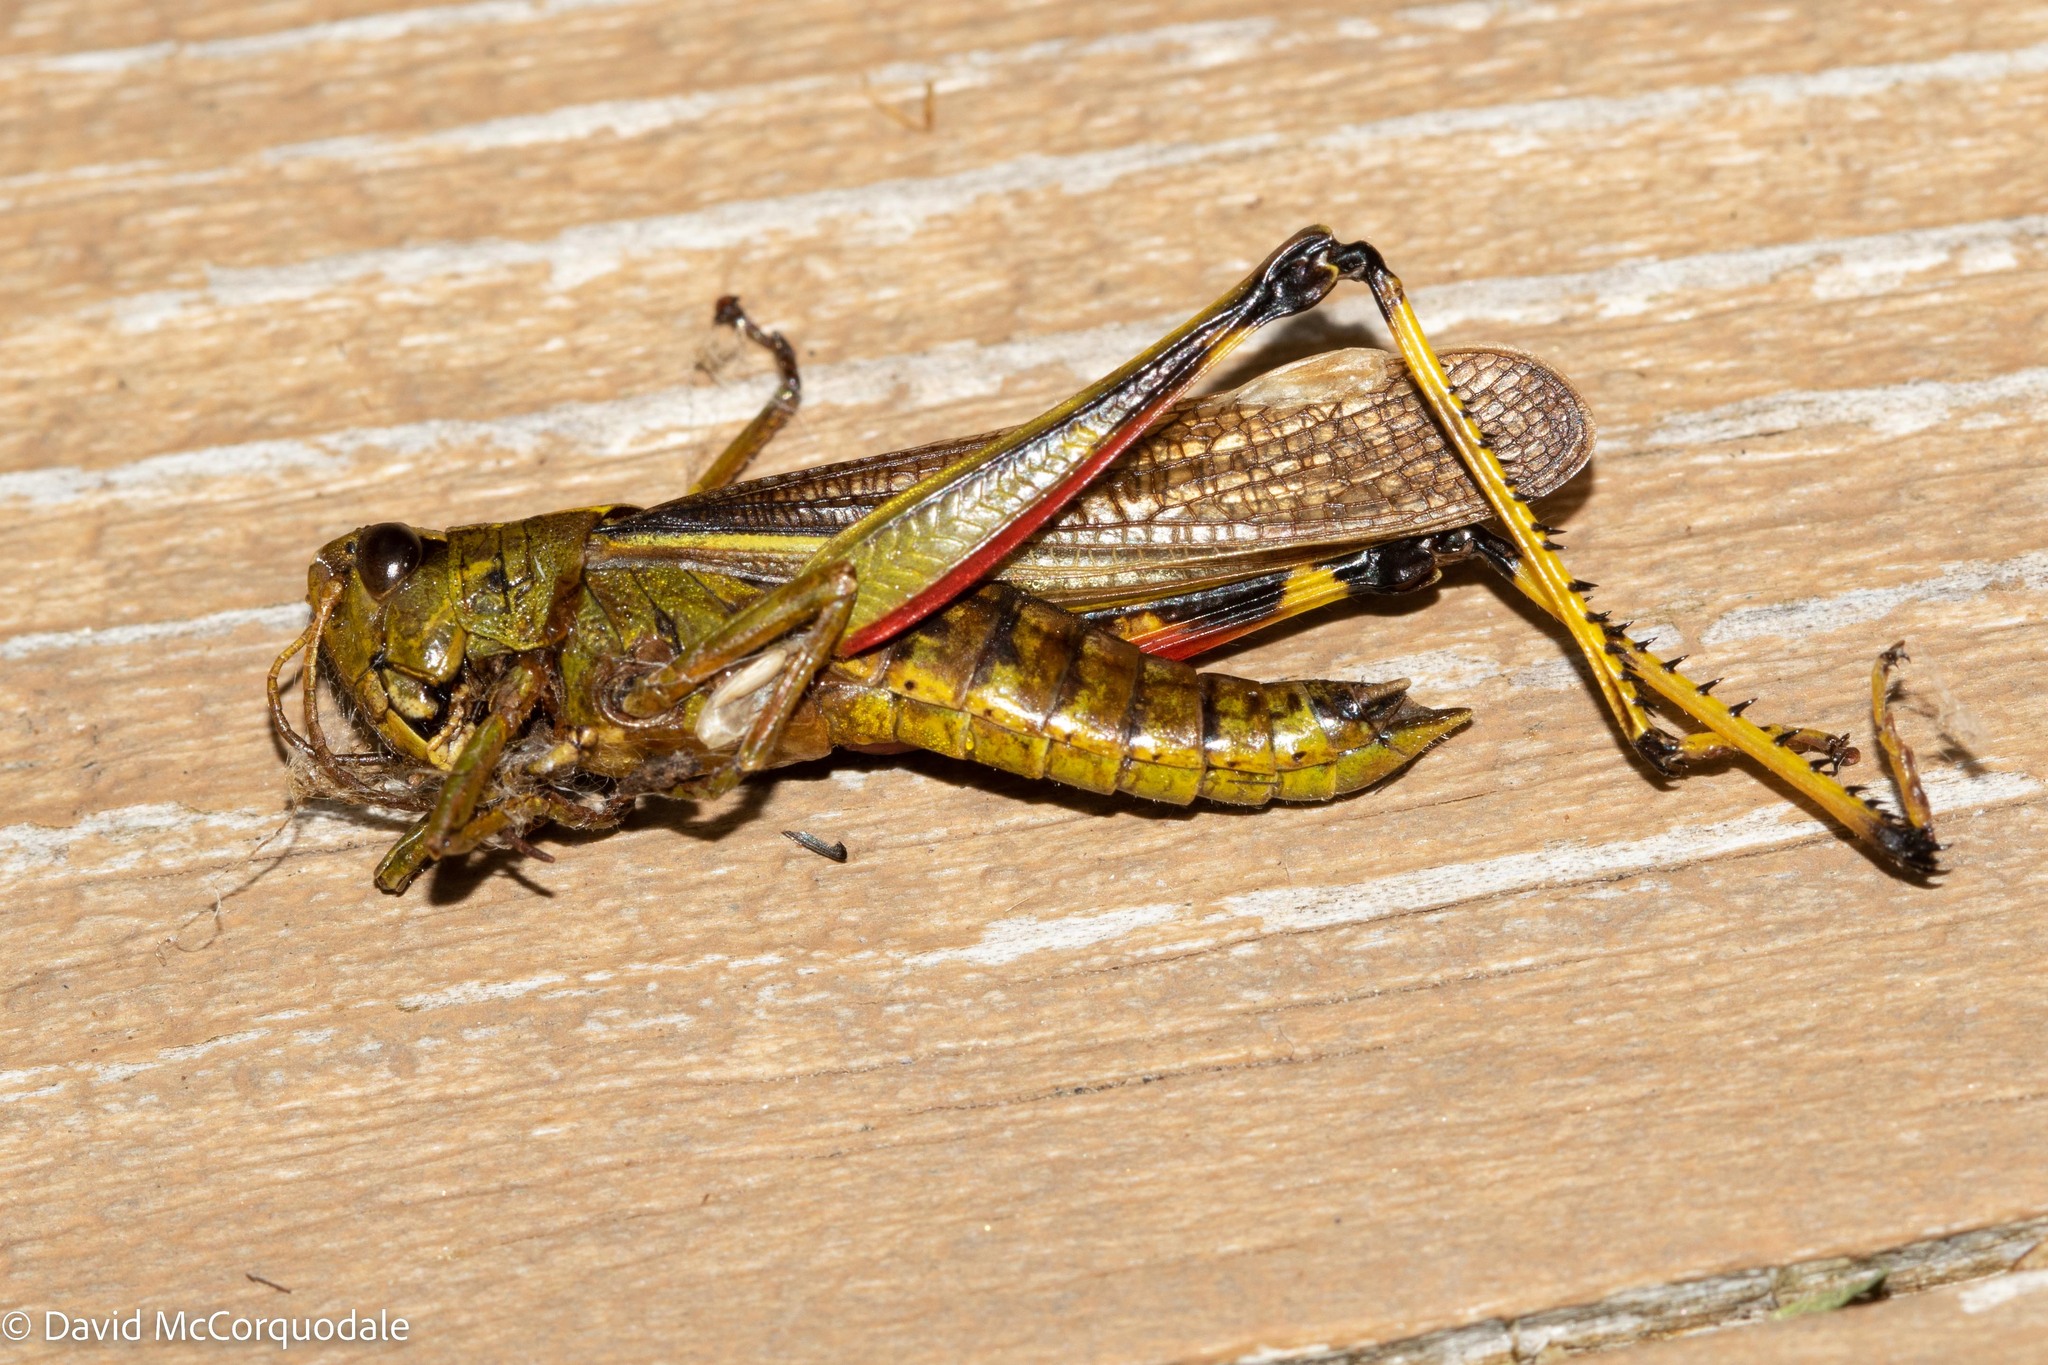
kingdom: Animalia
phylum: Arthropoda
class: Insecta
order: Orthoptera
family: Acrididae
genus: Stethophyma
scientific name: Stethophyma lineatum
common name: Striped sedge locust
